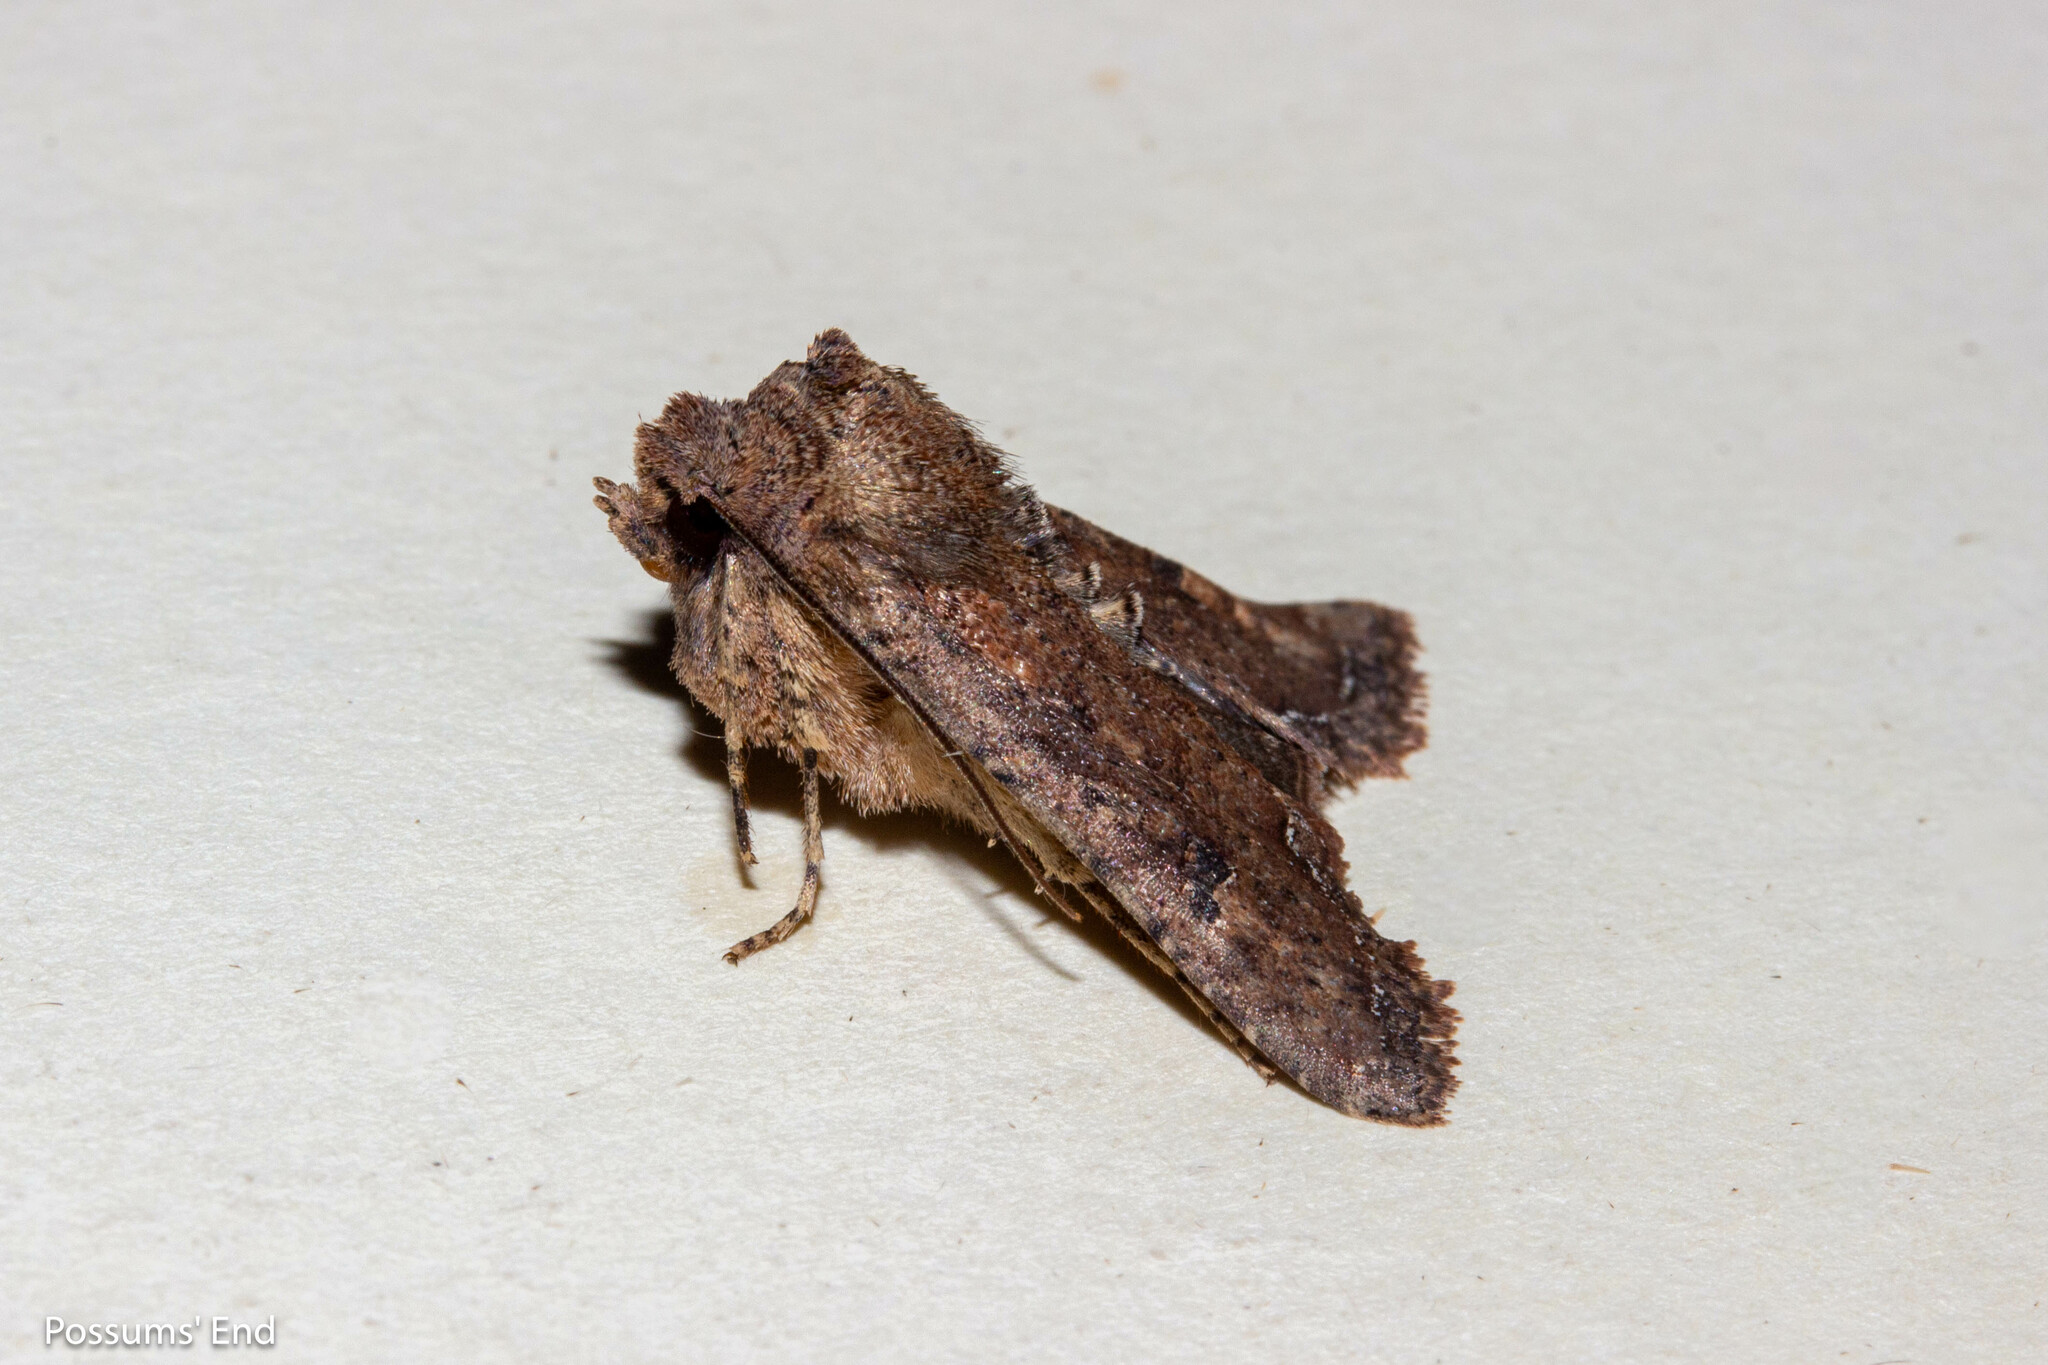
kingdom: Animalia
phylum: Arthropoda
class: Insecta
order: Lepidoptera
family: Noctuidae
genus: Meterana
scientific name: Meterana inchoata
